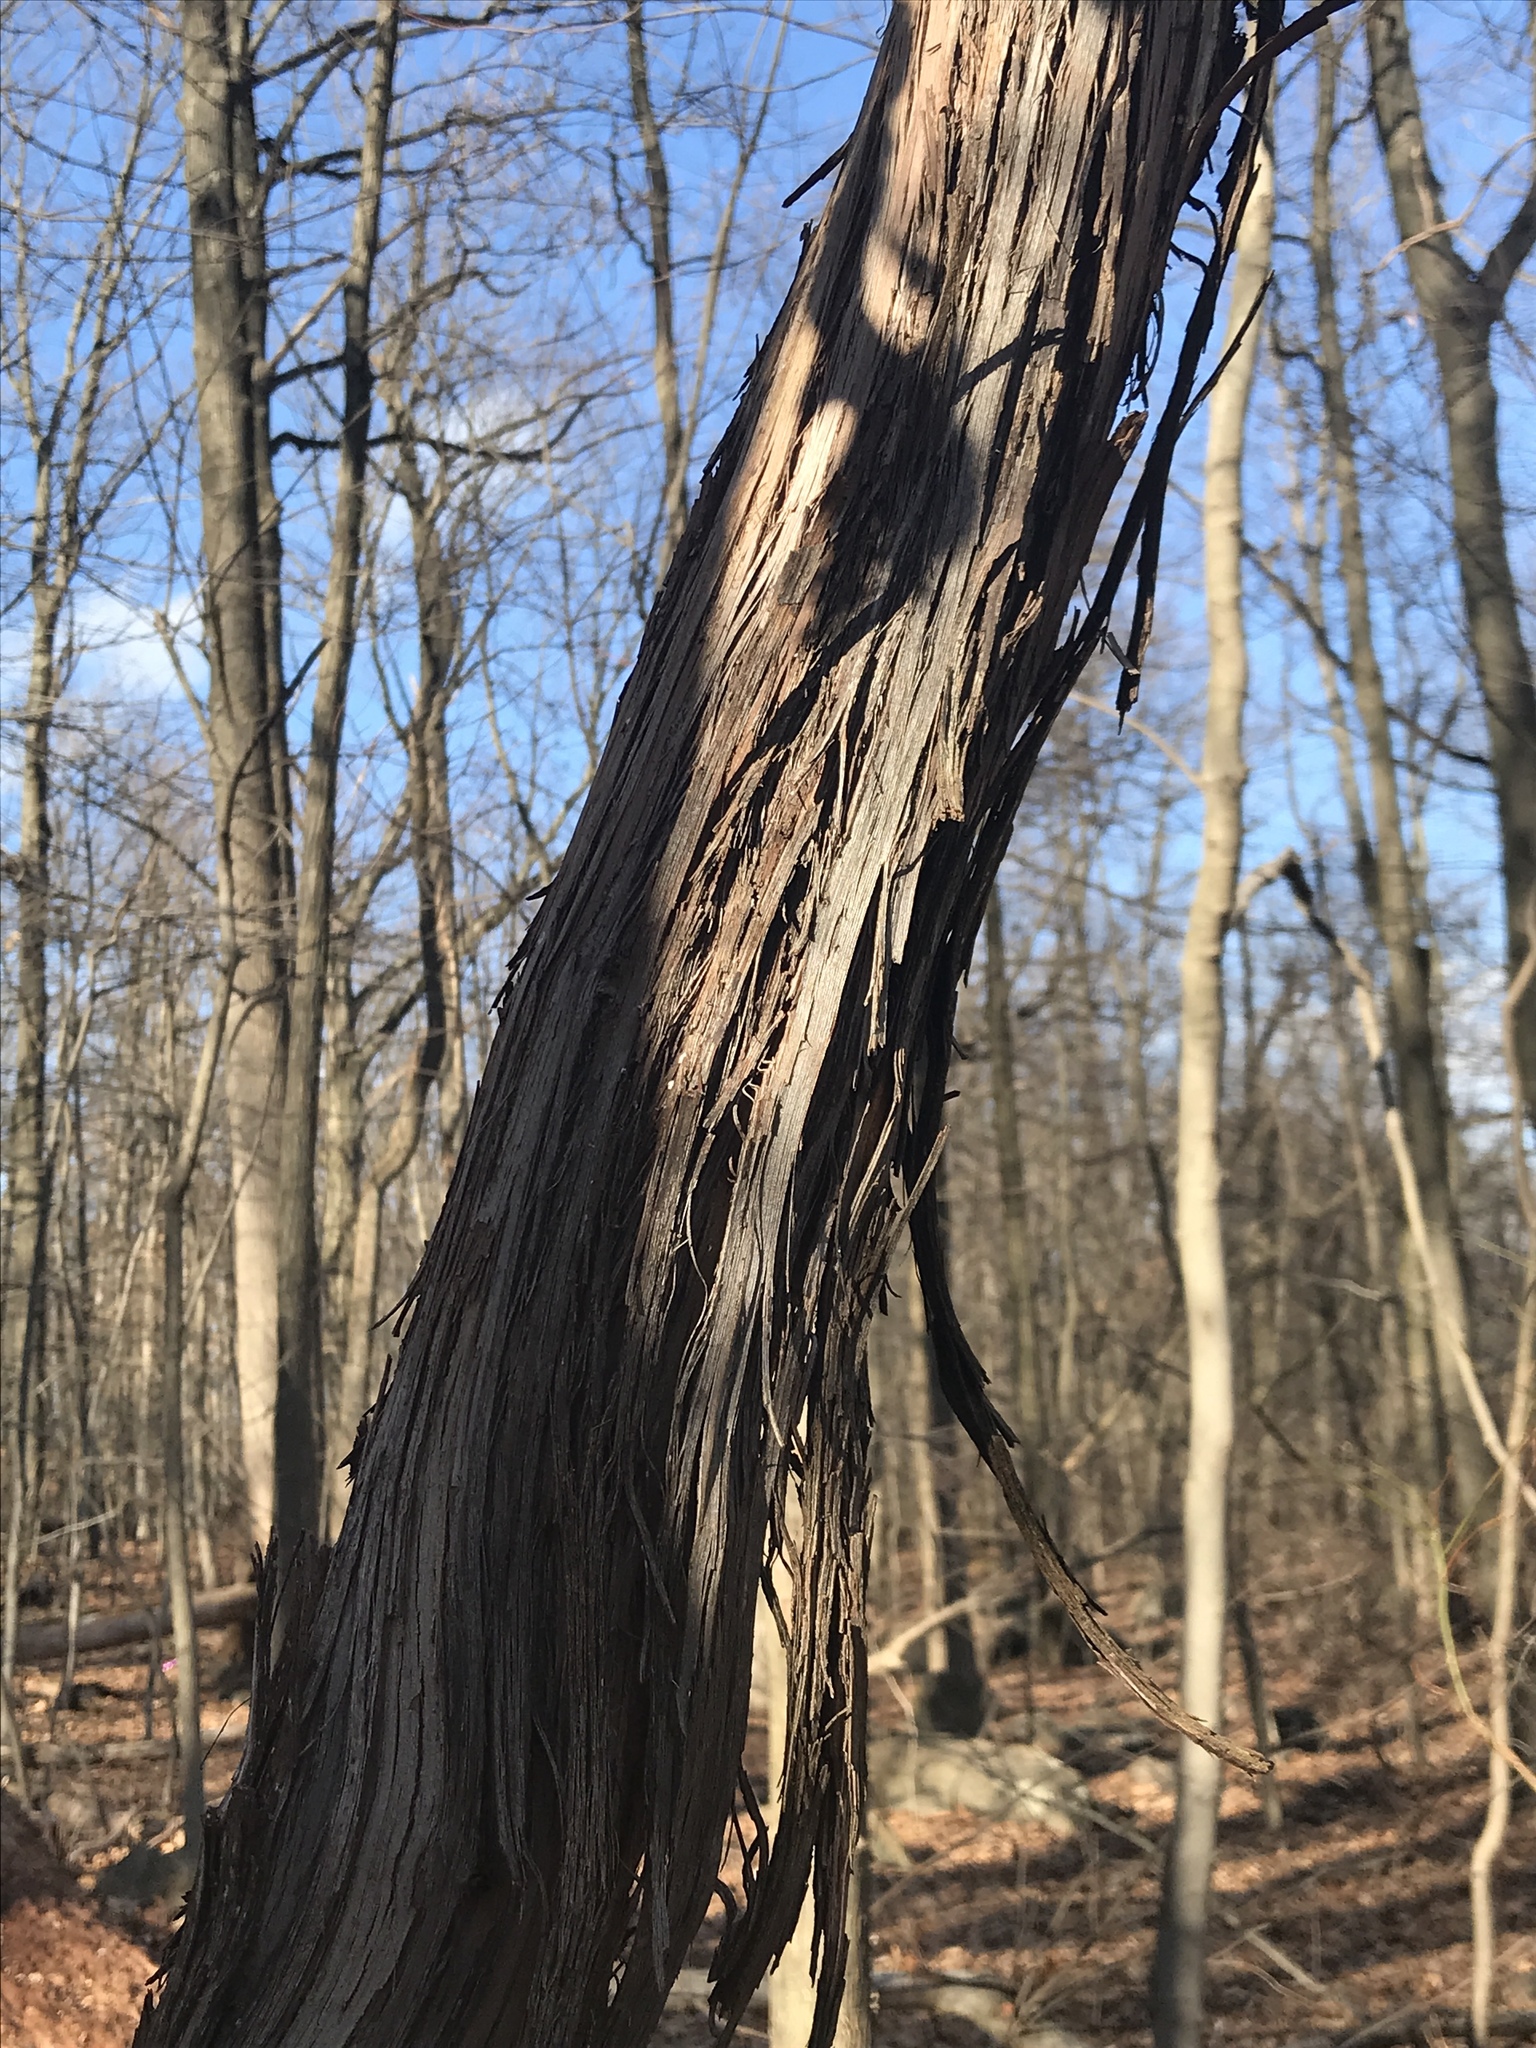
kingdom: Plantae
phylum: Tracheophyta
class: Magnoliopsida
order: Vitales
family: Vitaceae
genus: Vitis
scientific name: Vitis
